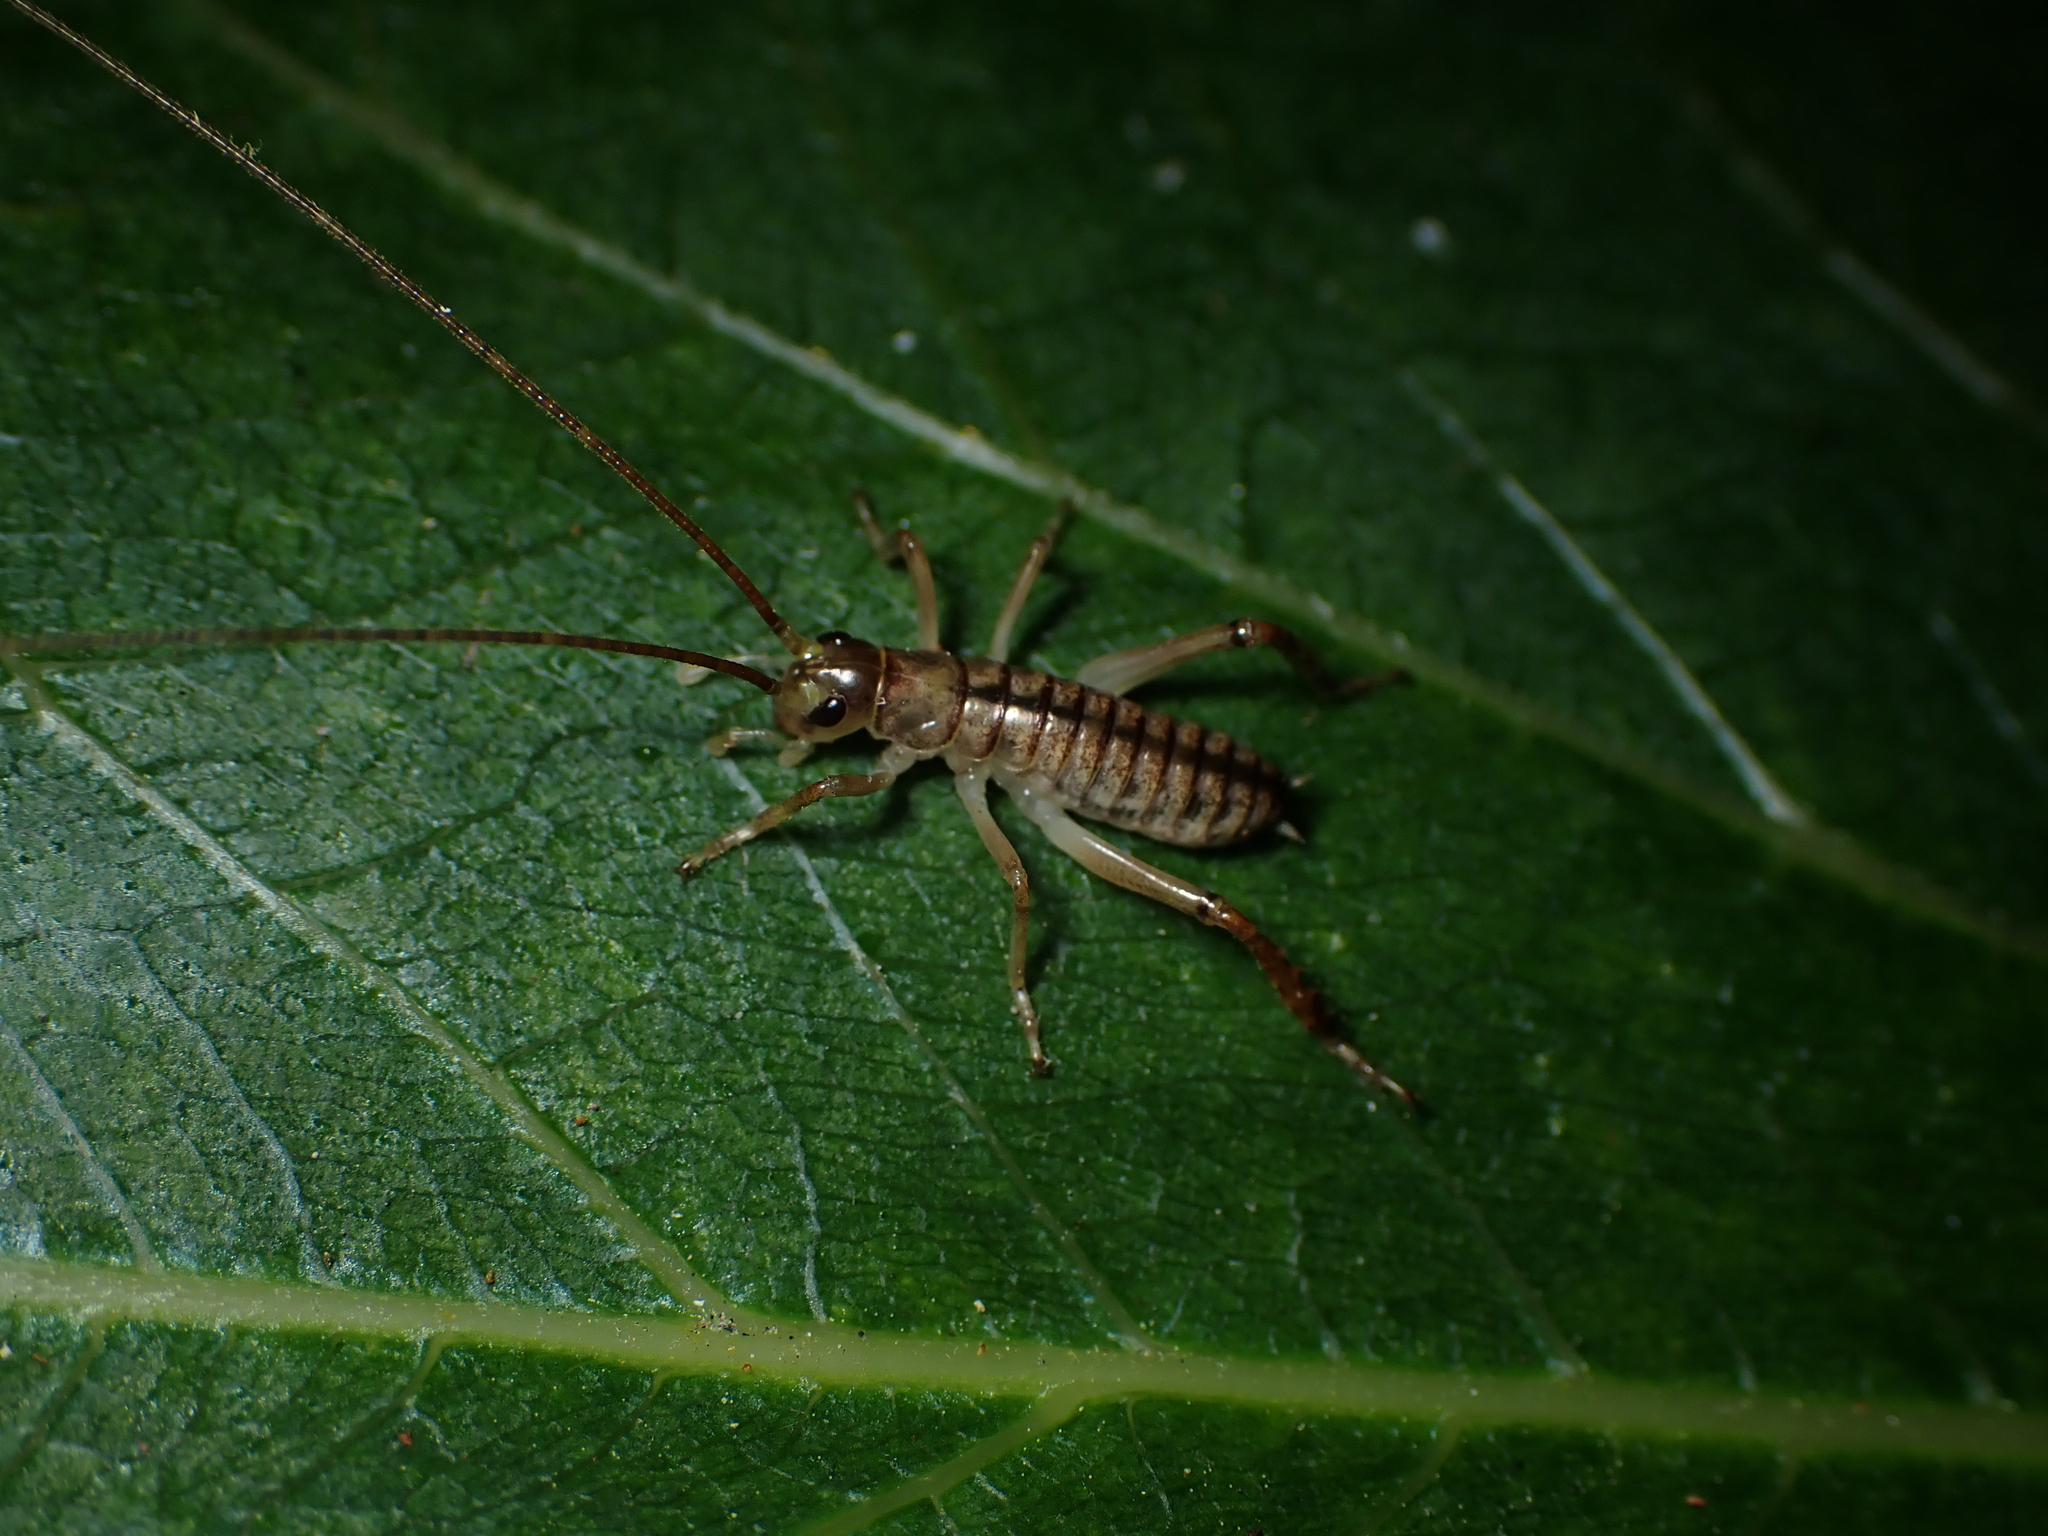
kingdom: Animalia
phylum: Arthropoda
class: Insecta
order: Orthoptera
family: Anostostomatidae
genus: Hemideina
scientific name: Hemideina thoracica
